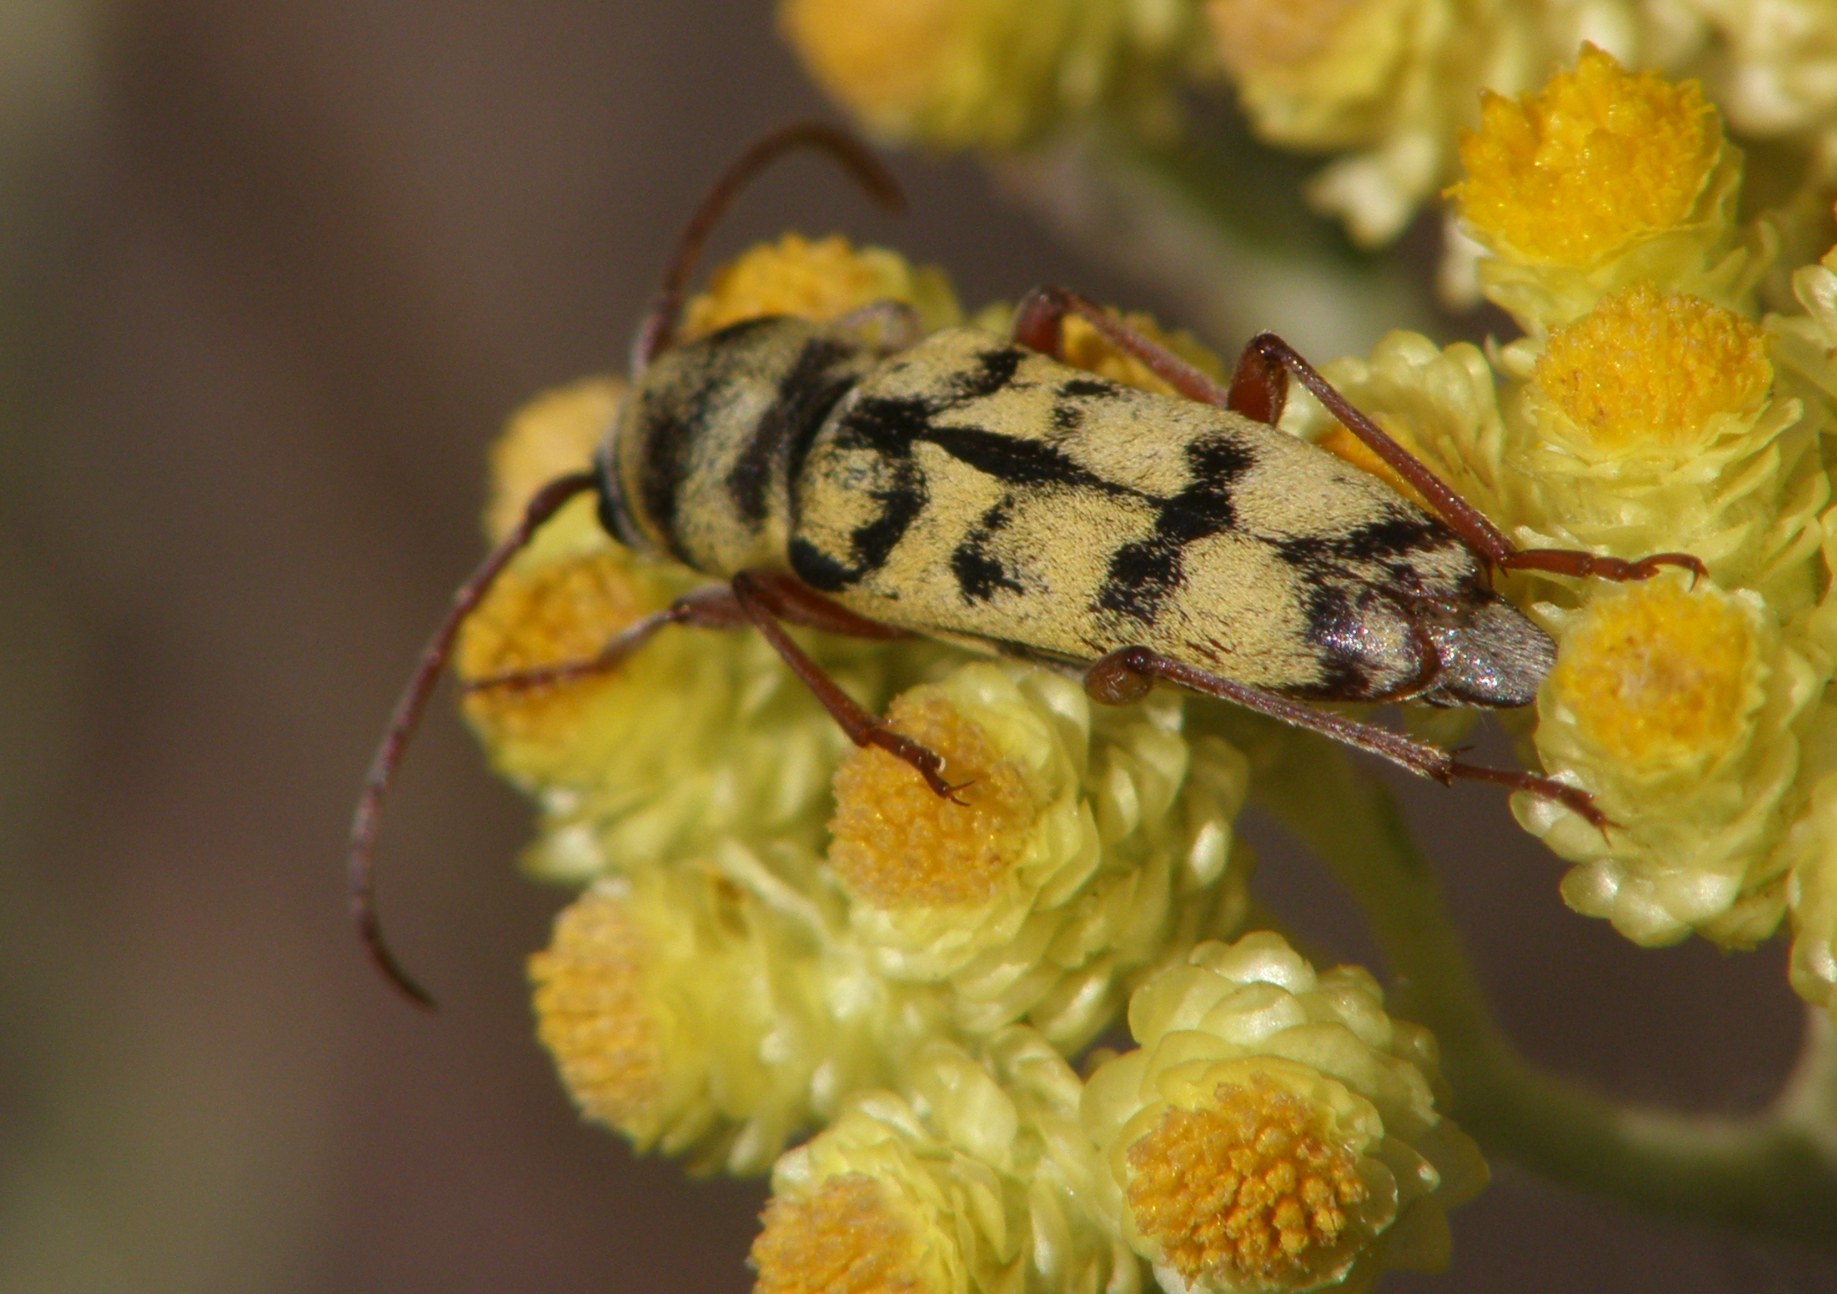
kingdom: Animalia
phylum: Arthropoda
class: Insecta
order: Coleoptera
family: Cerambycidae
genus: Plagionotus
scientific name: Plagionotus floralis
